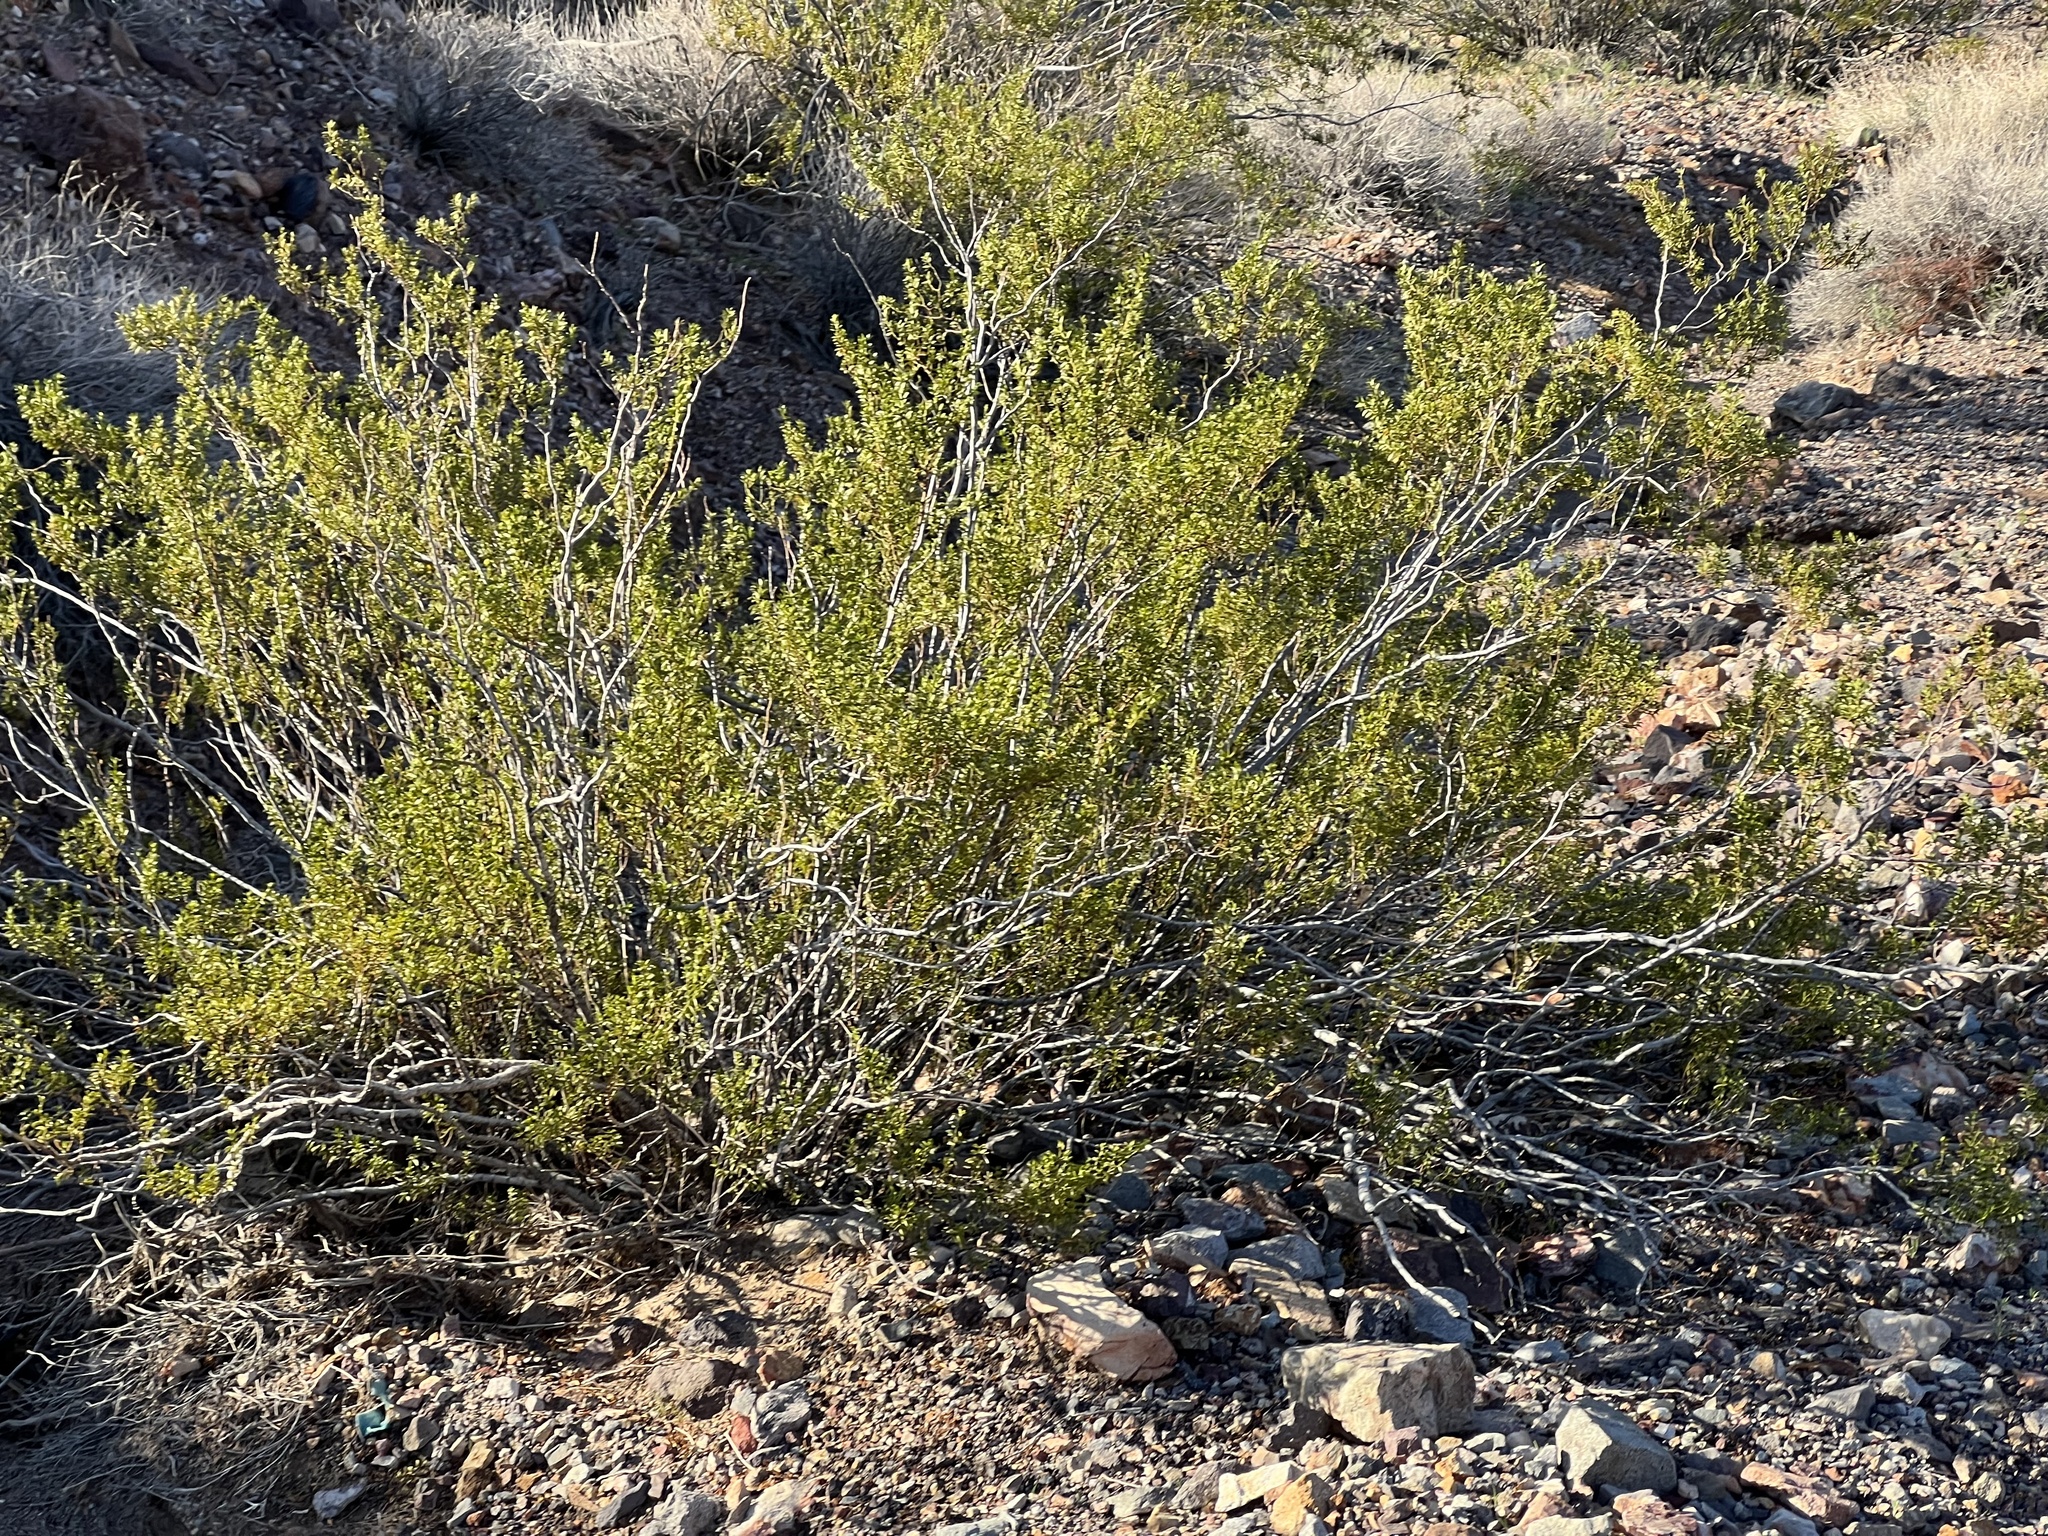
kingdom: Plantae
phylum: Tracheophyta
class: Magnoliopsida
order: Zygophyllales
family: Zygophyllaceae
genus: Larrea
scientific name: Larrea tridentata
